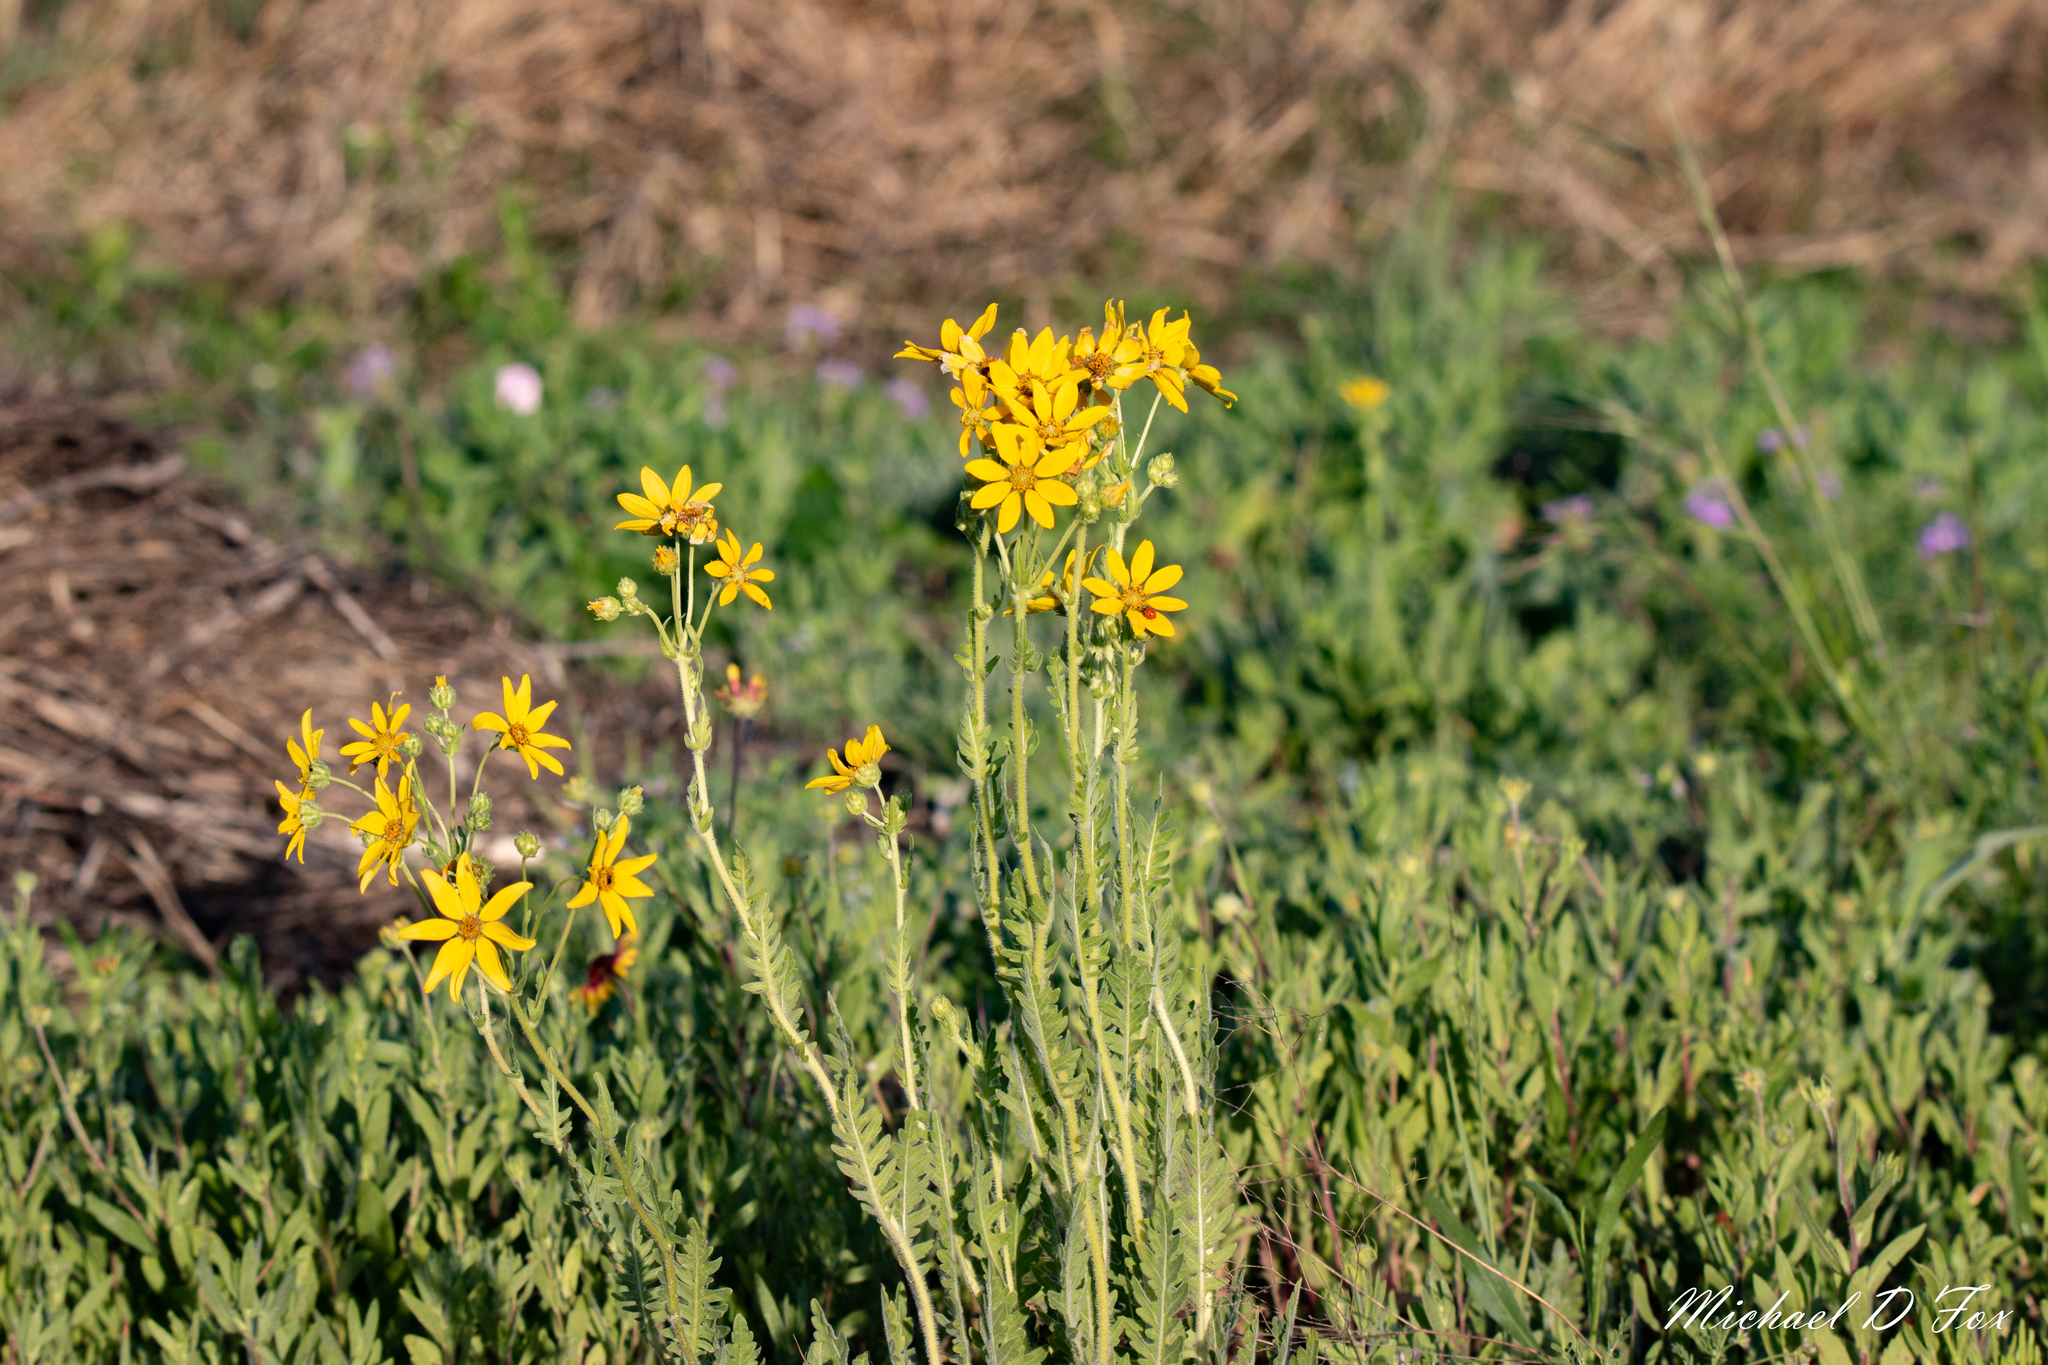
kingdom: Plantae
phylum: Tracheophyta
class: Magnoliopsida
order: Asterales
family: Asteraceae
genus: Engelmannia
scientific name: Engelmannia peristenia
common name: Engelmann's daisy
